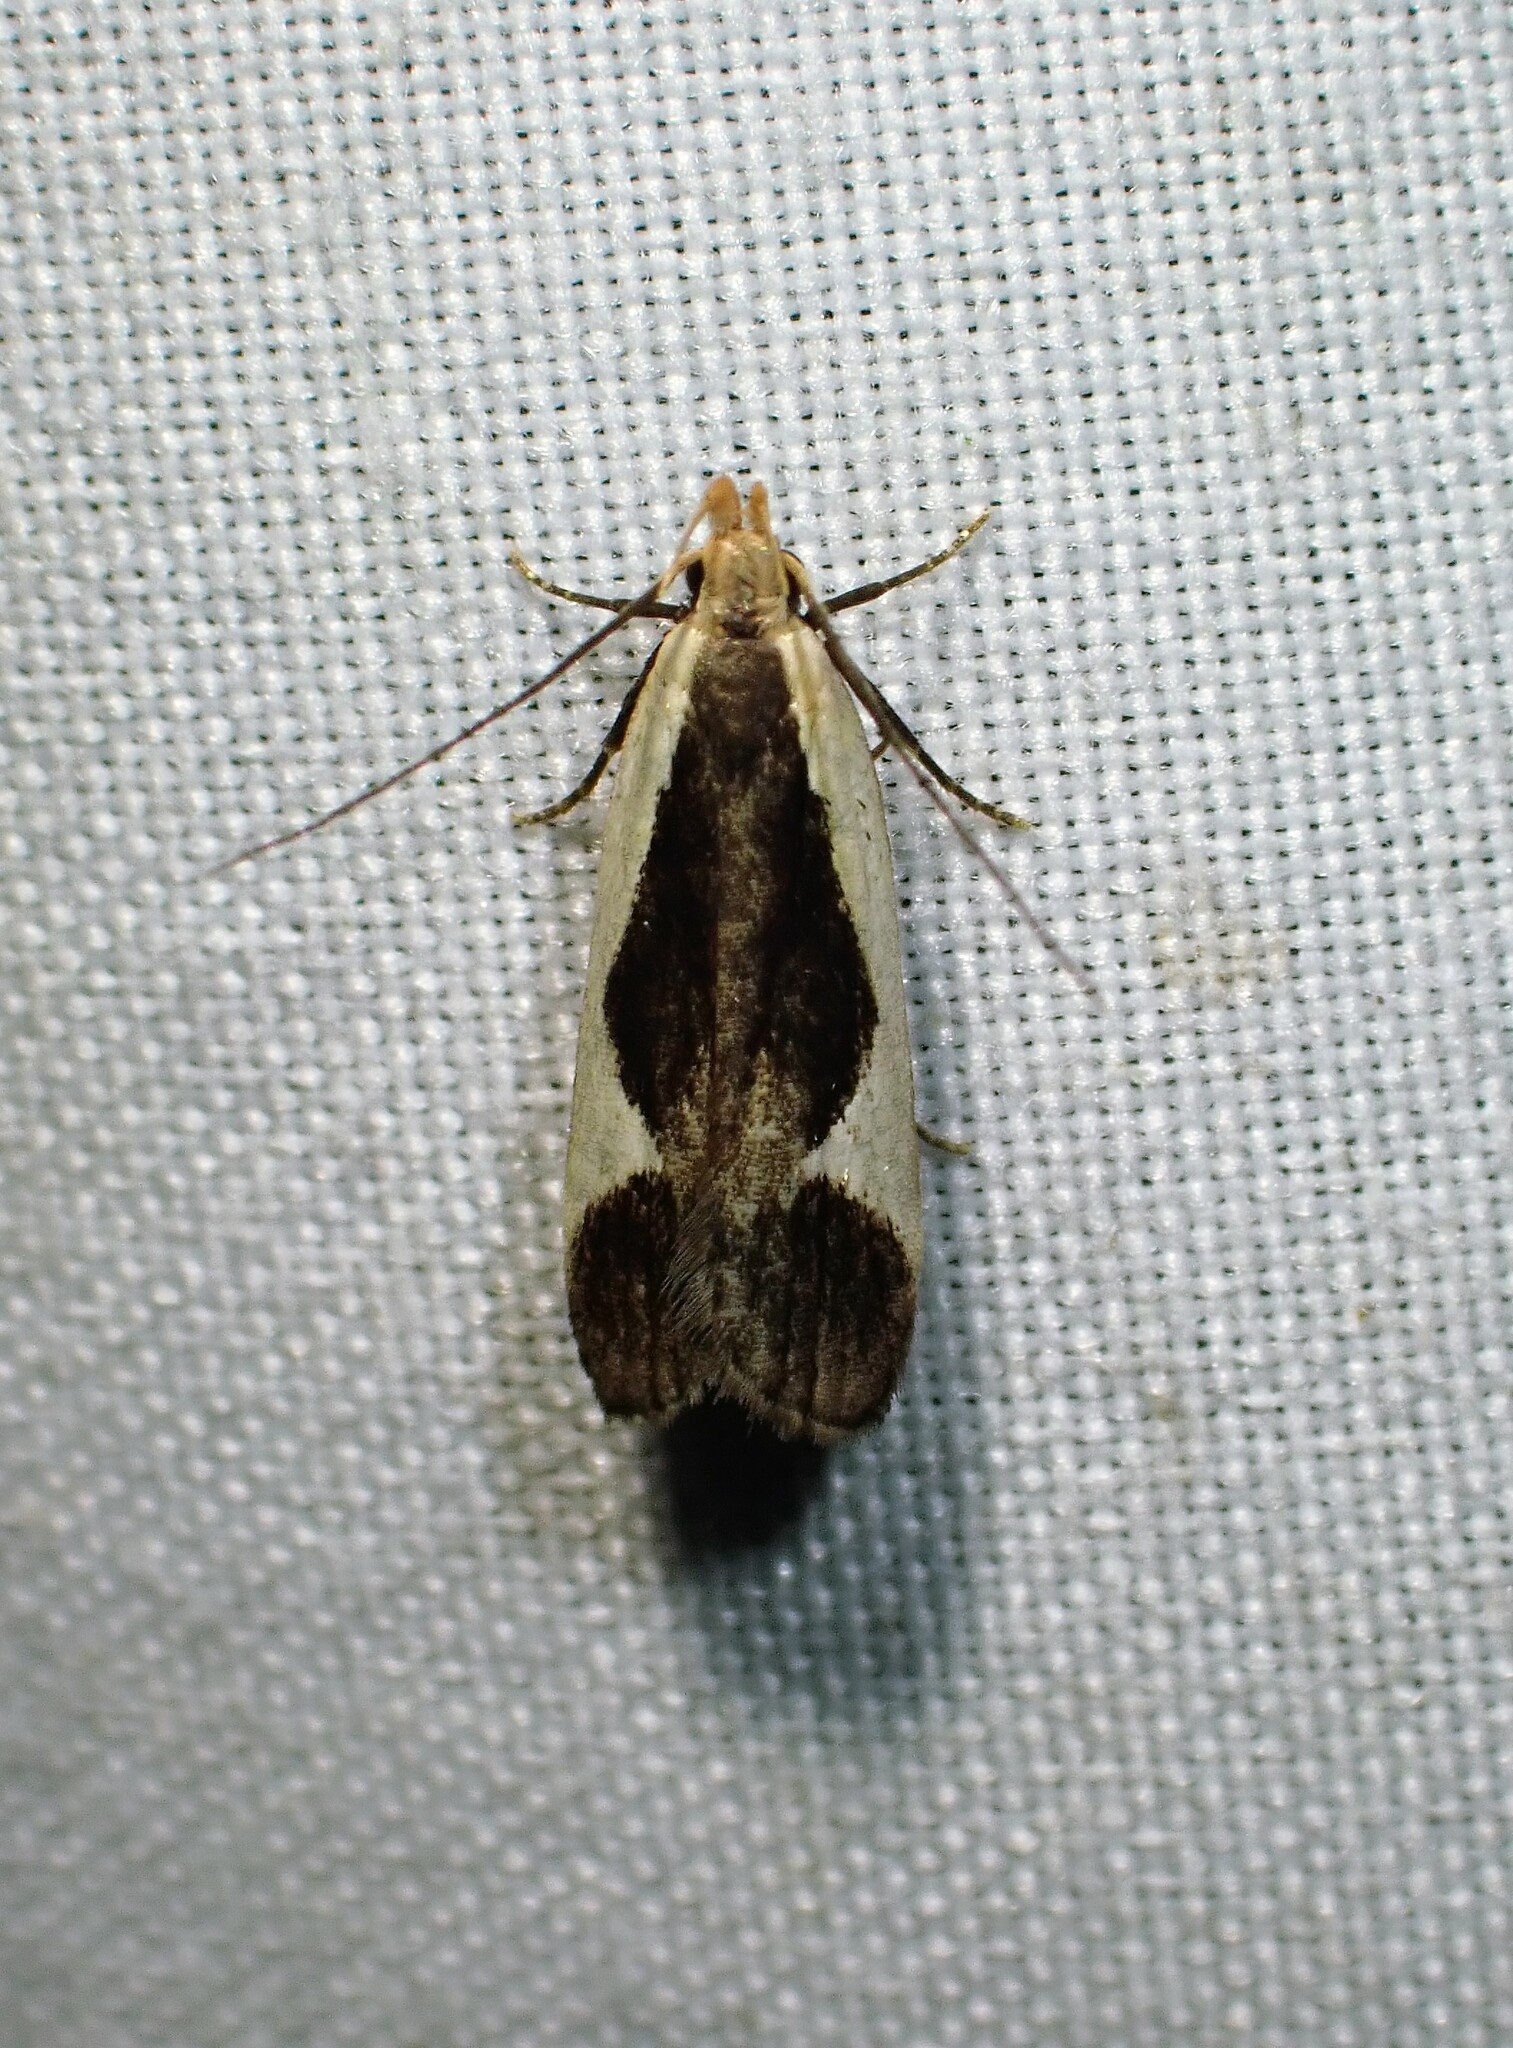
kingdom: Animalia
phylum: Arthropoda
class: Insecta
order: Lepidoptera
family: Gelechiidae
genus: Dichomeris
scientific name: Dichomeris flavocostella
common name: Cream-edged dichomeris moth
